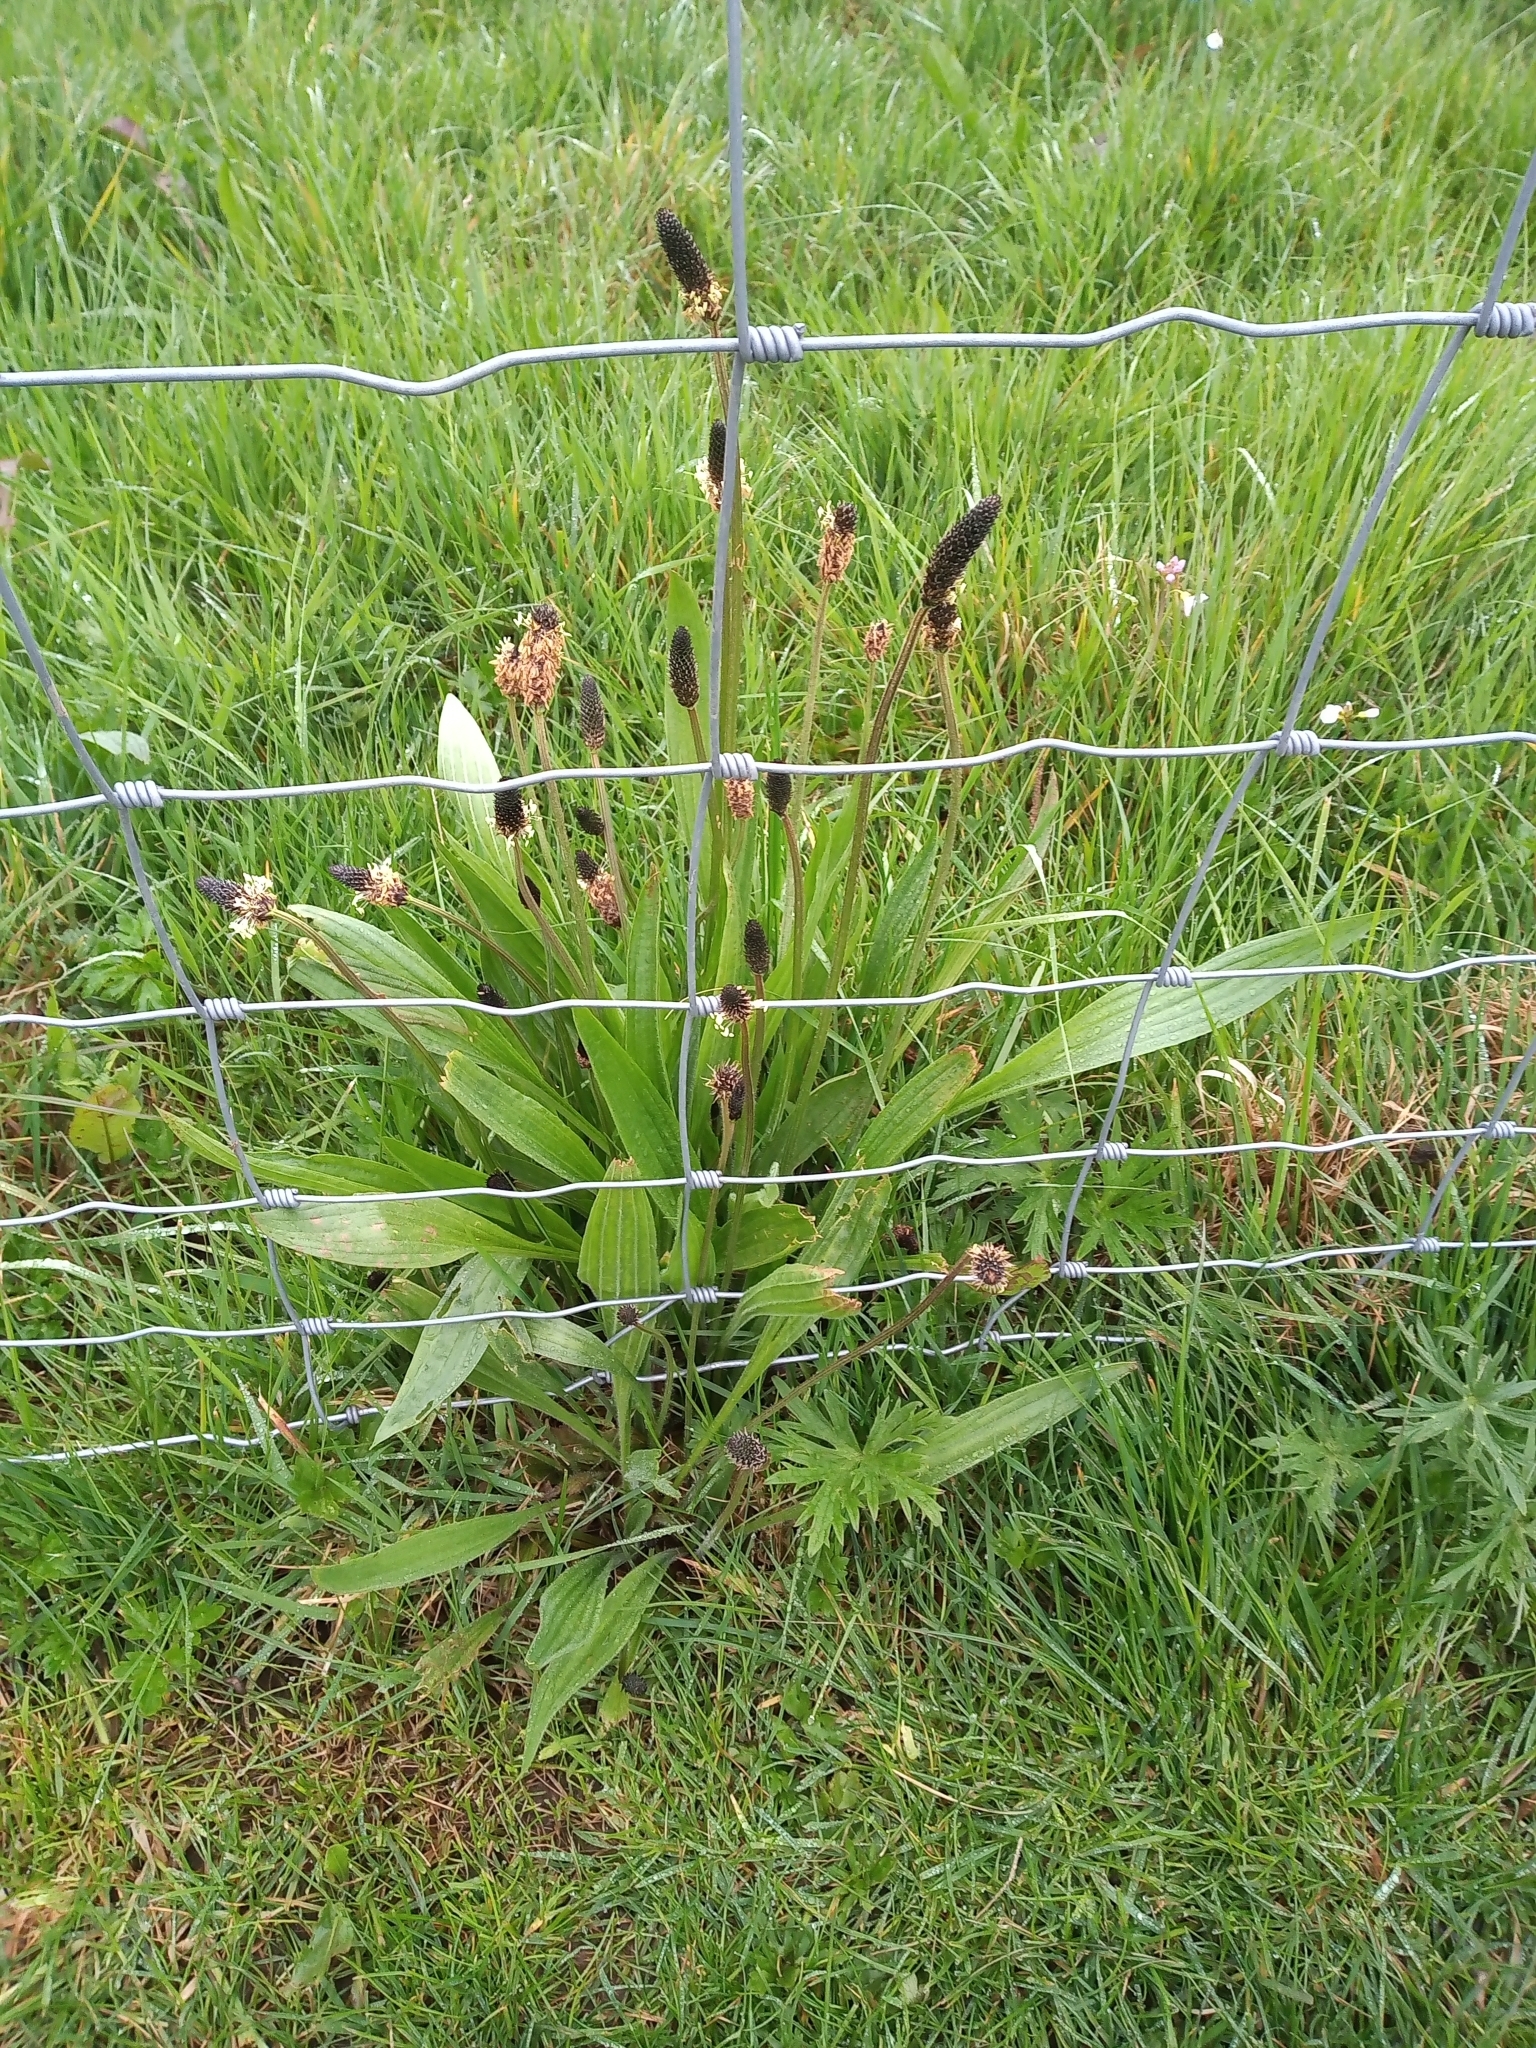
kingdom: Plantae
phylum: Tracheophyta
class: Magnoliopsida
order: Lamiales
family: Plantaginaceae
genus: Plantago
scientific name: Plantago lanceolata
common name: Ribwort plantain
